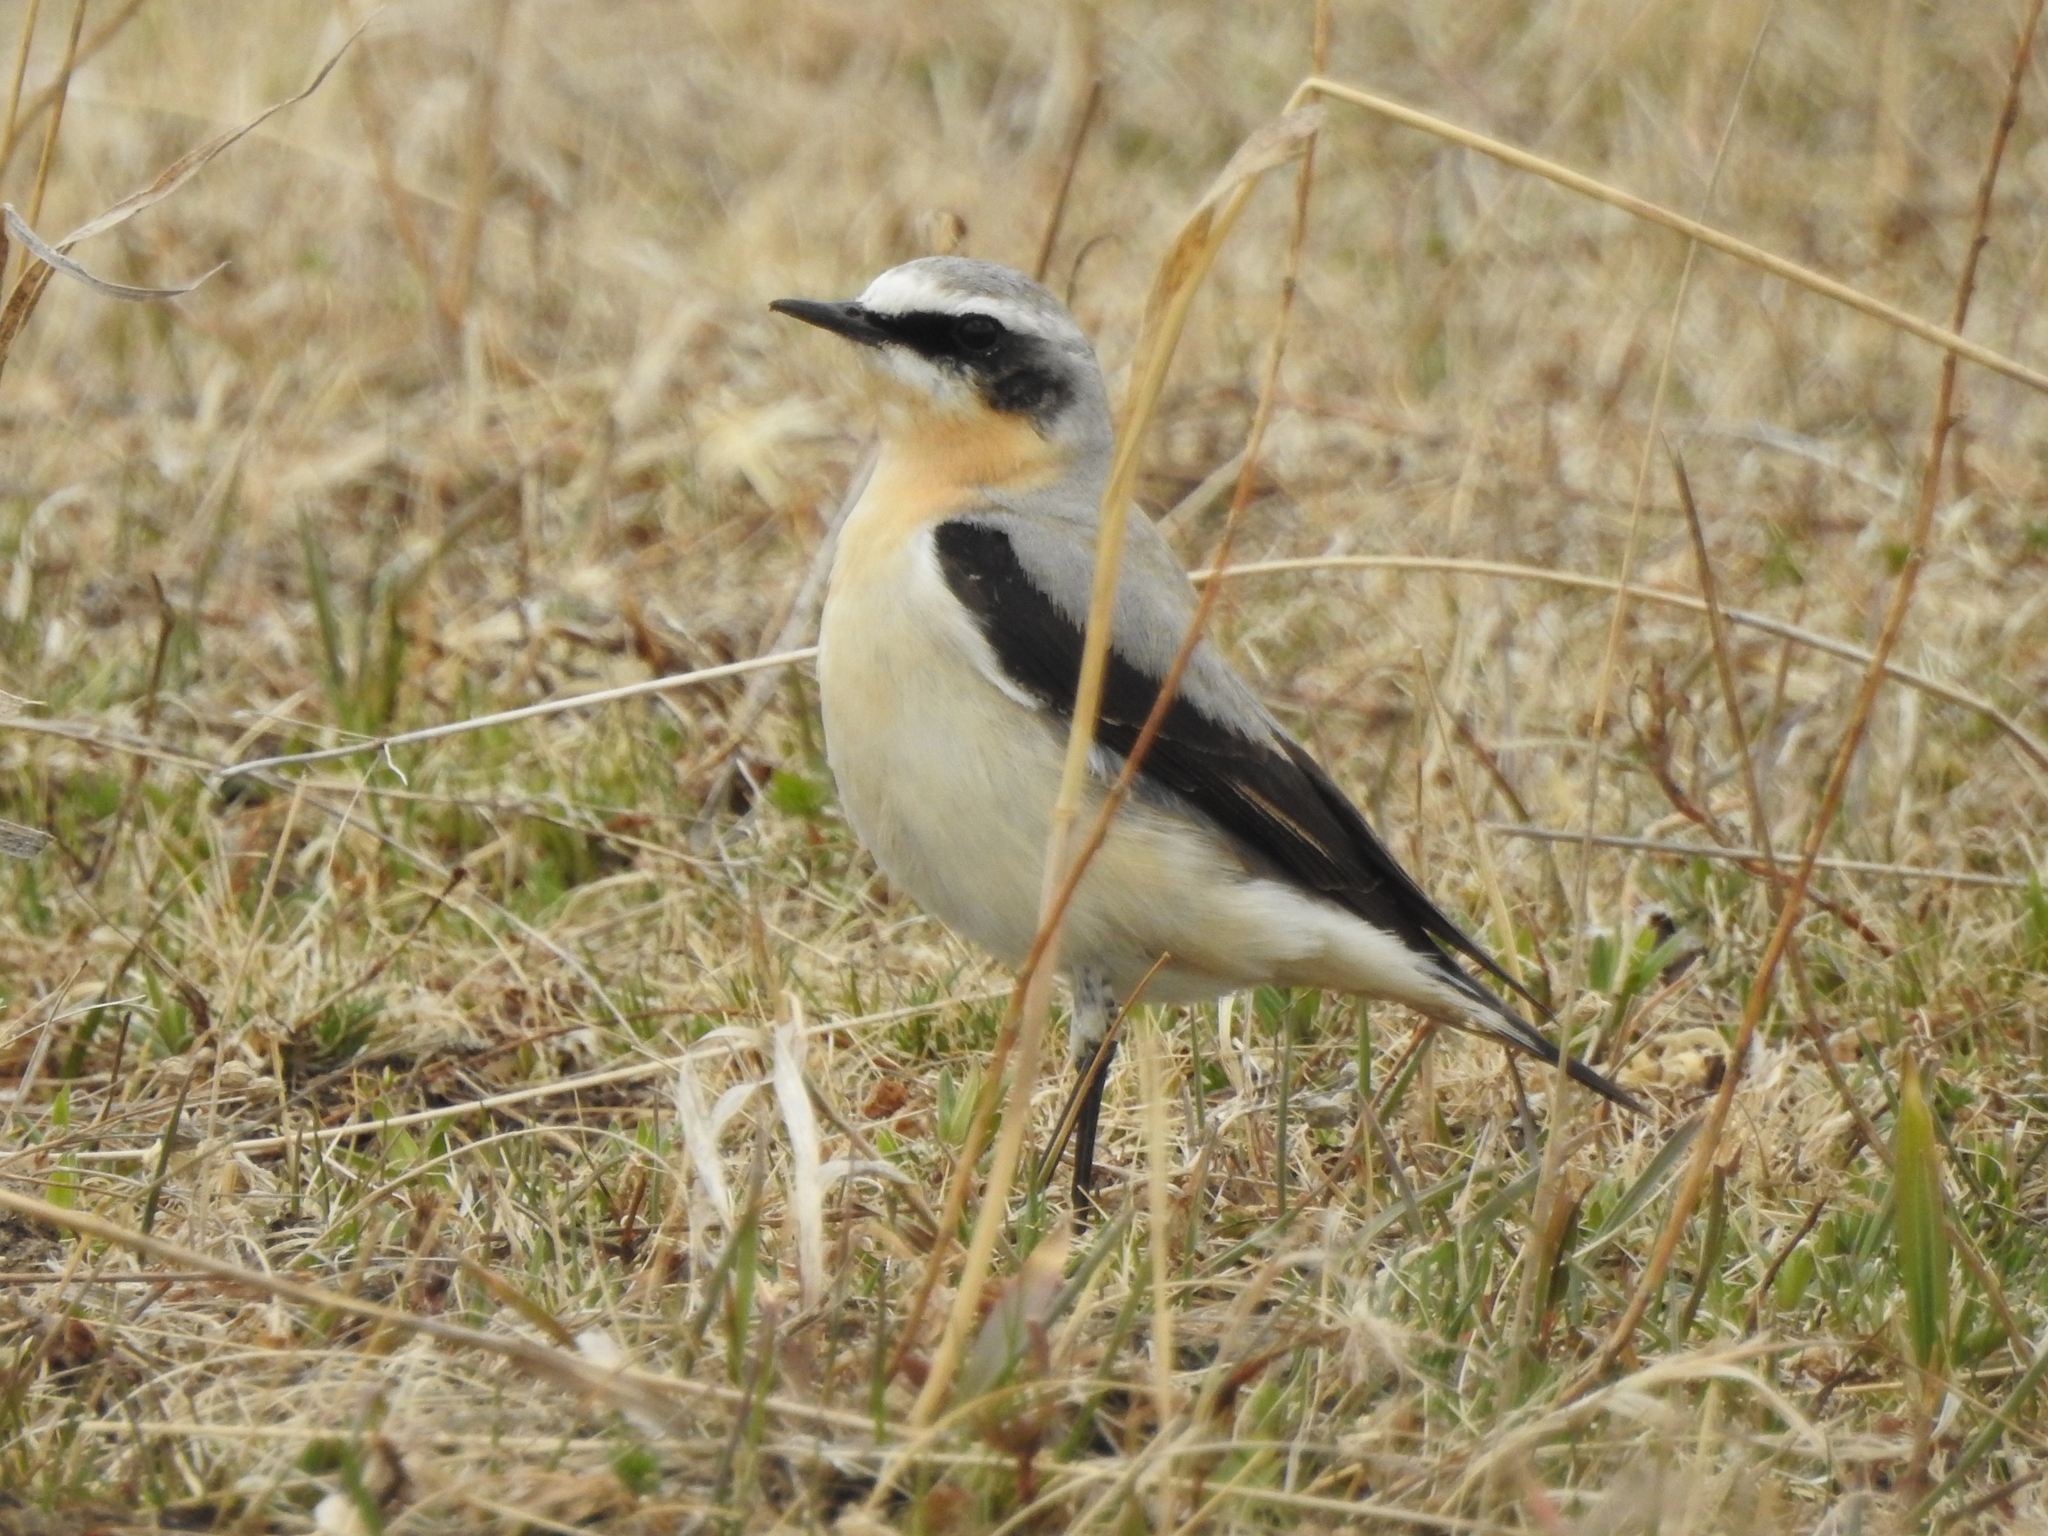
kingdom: Animalia
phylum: Chordata
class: Aves
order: Passeriformes
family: Muscicapidae
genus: Oenanthe
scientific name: Oenanthe oenanthe
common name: Northern wheatear
